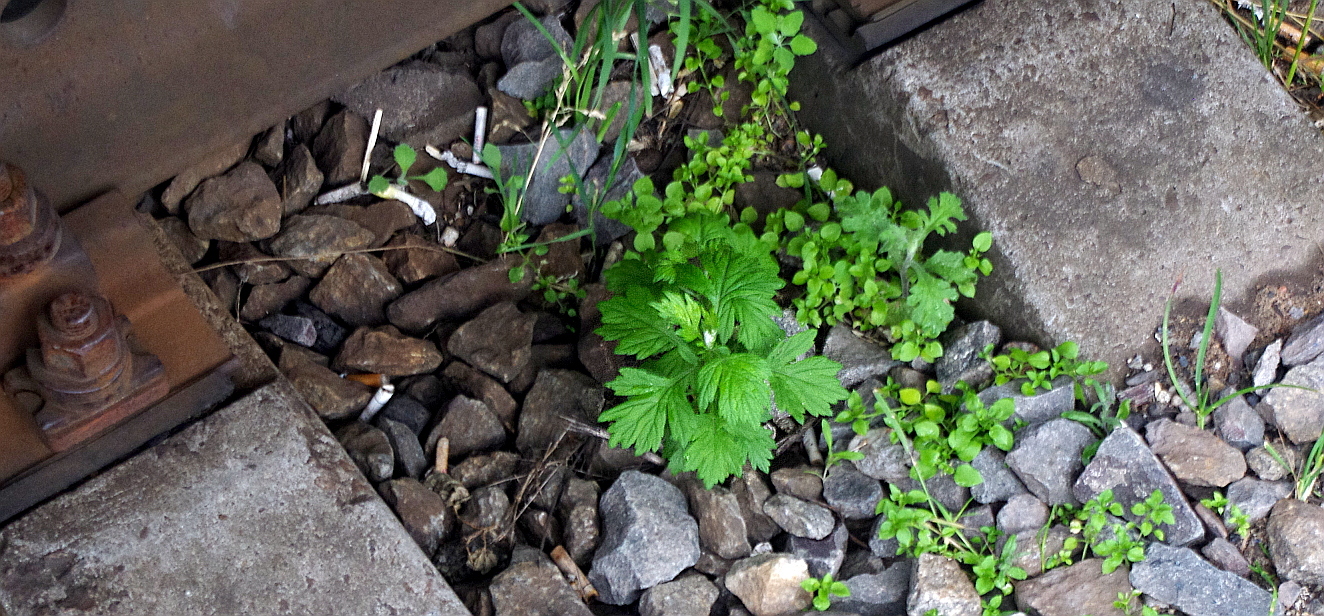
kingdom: Plantae
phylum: Tracheophyta
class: Magnoliopsida
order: Asterales
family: Asteraceae
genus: Artemisia
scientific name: Artemisia vulgaris
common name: Mugwort
